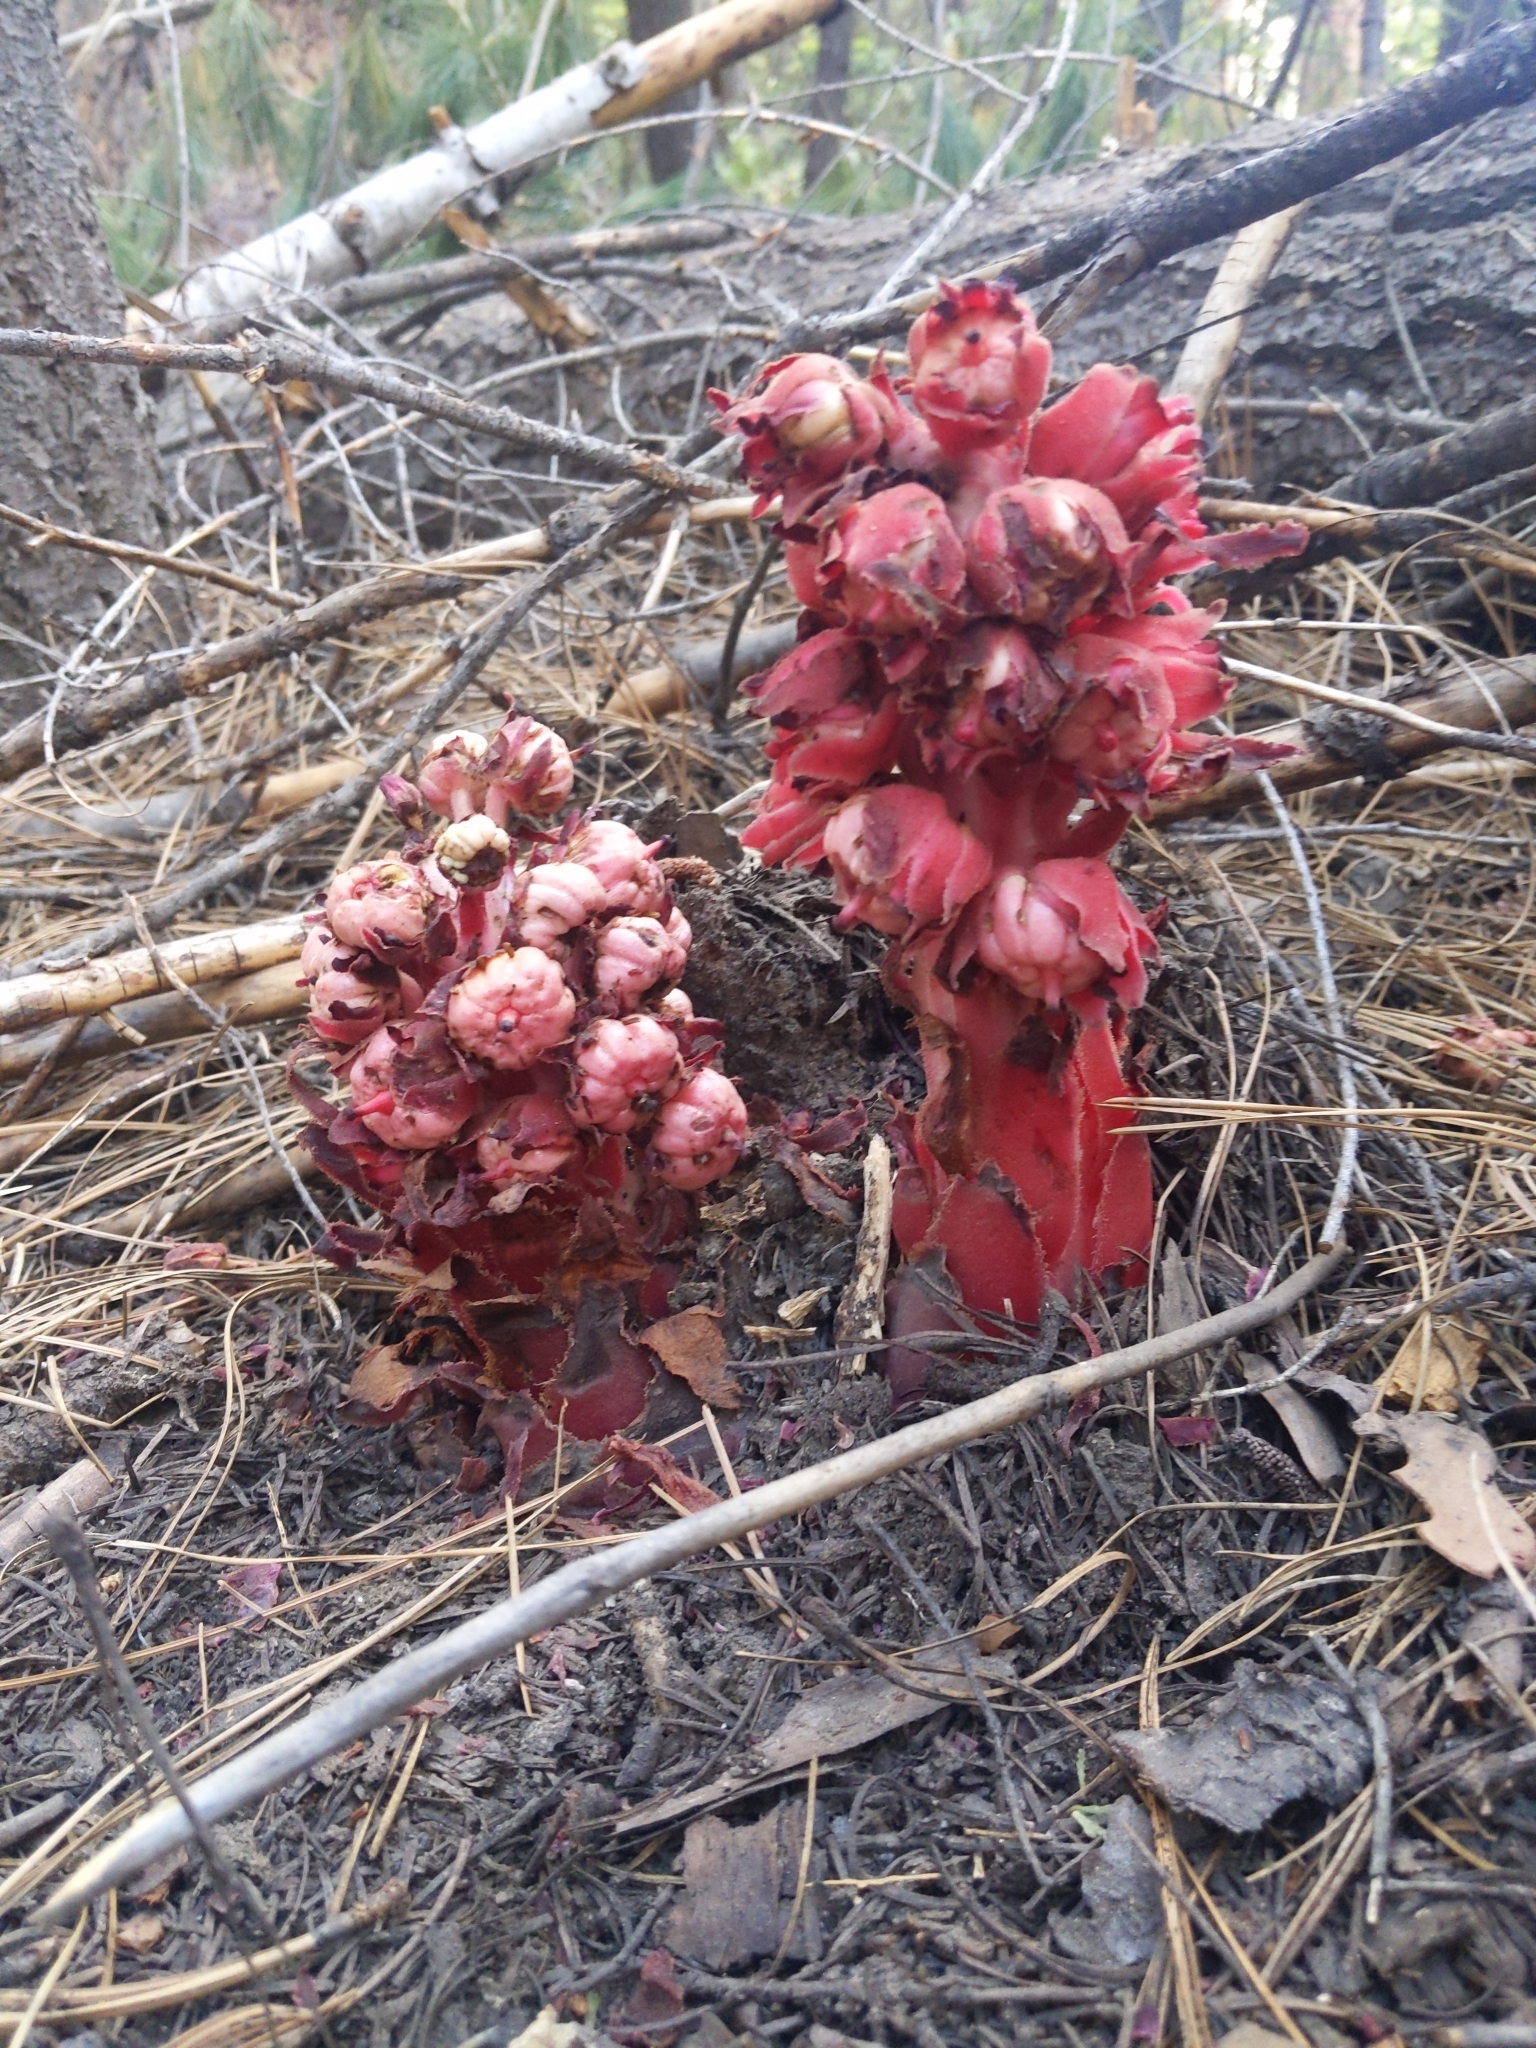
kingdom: Plantae
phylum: Tracheophyta
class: Magnoliopsida
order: Ericales
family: Ericaceae
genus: Sarcodes
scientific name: Sarcodes sanguinea
